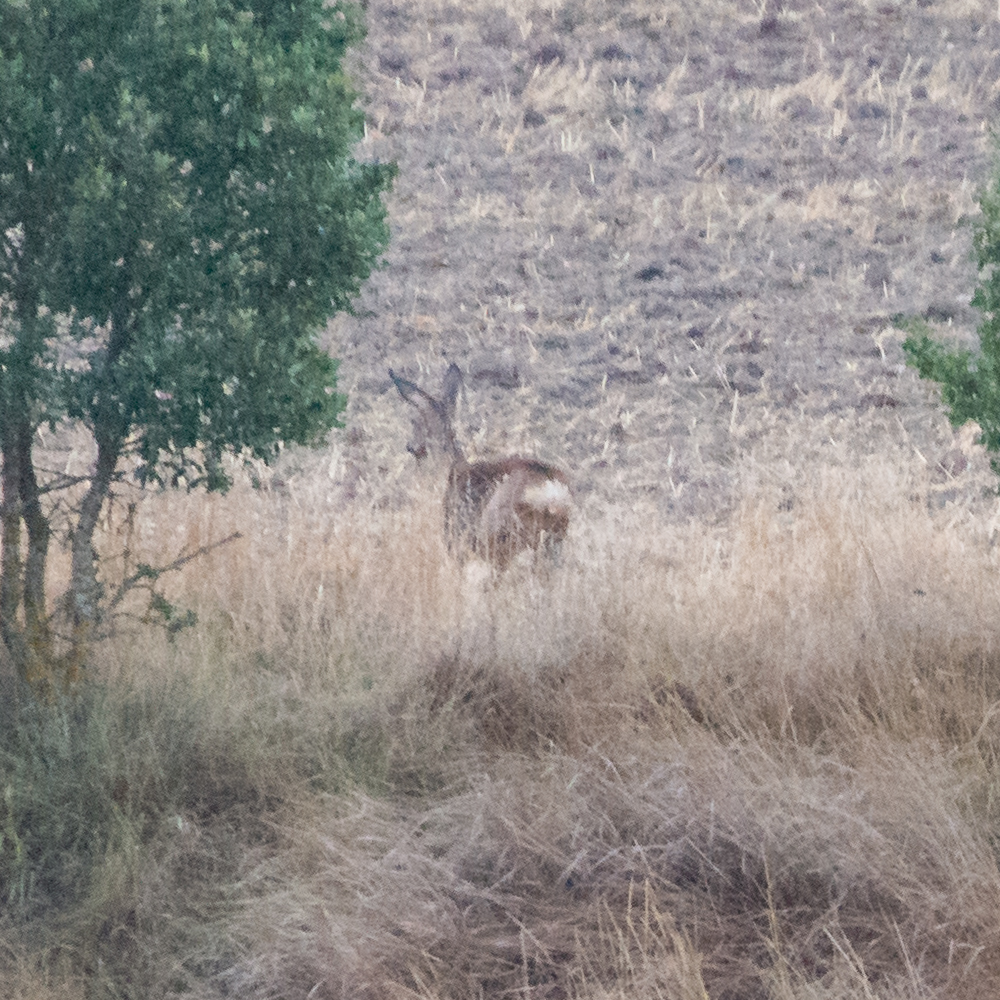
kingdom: Animalia
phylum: Chordata
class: Mammalia
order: Artiodactyla
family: Cervidae
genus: Capreolus
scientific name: Capreolus capreolus
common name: Western roe deer
